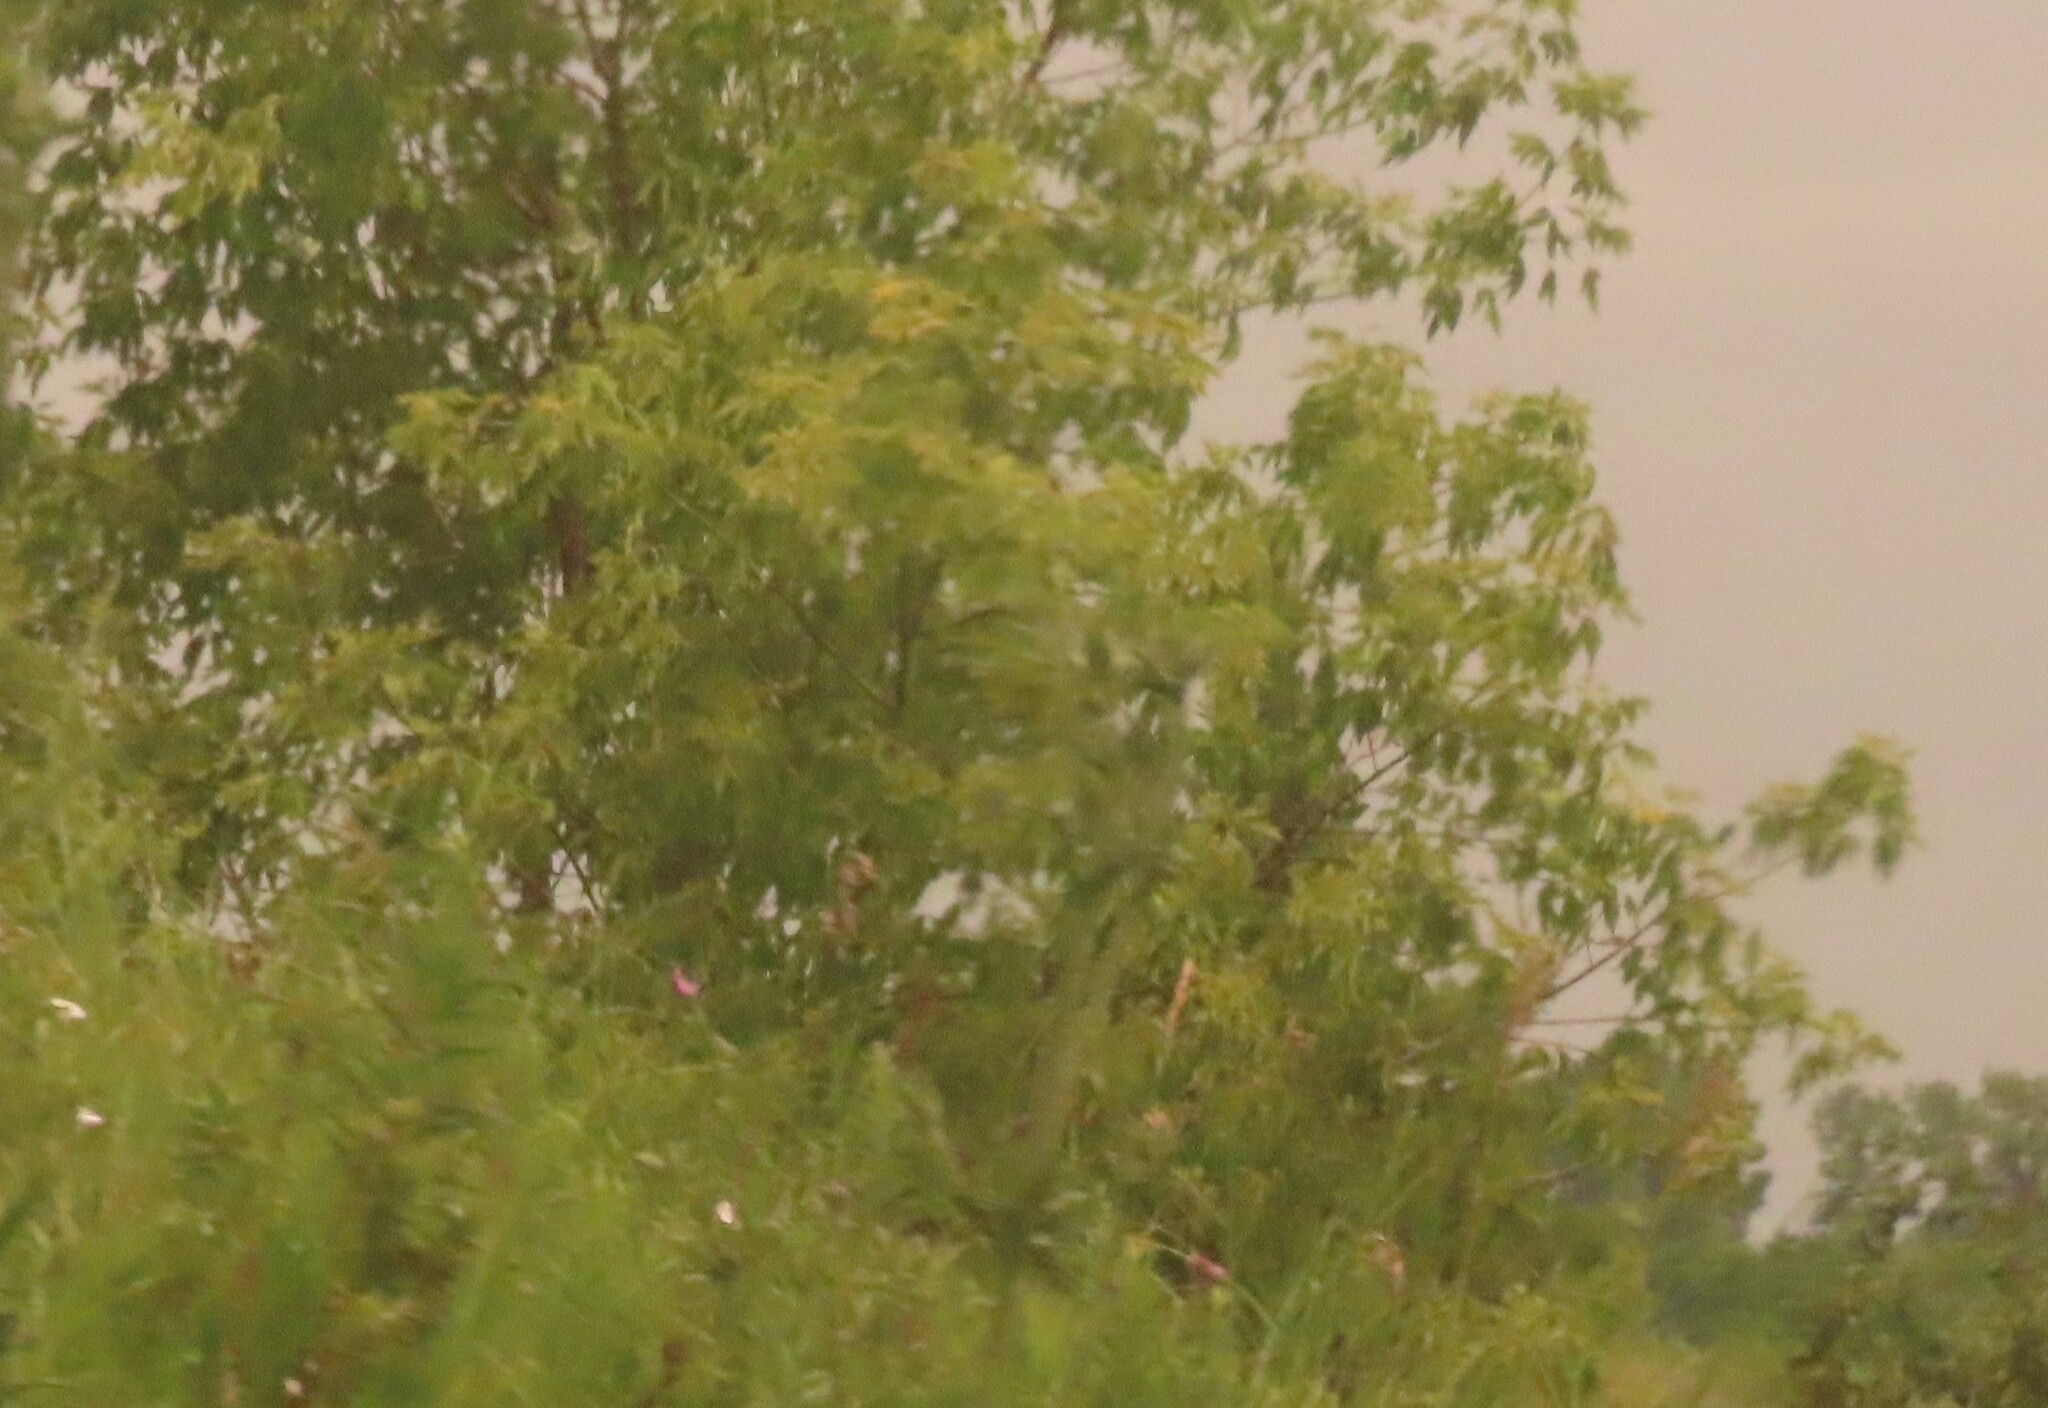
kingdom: Plantae
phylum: Tracheophyta
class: Magnoliopsida
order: Sapindales
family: Sapindaceae
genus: Acer
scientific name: Acer negundo
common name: Ashleaf maple
